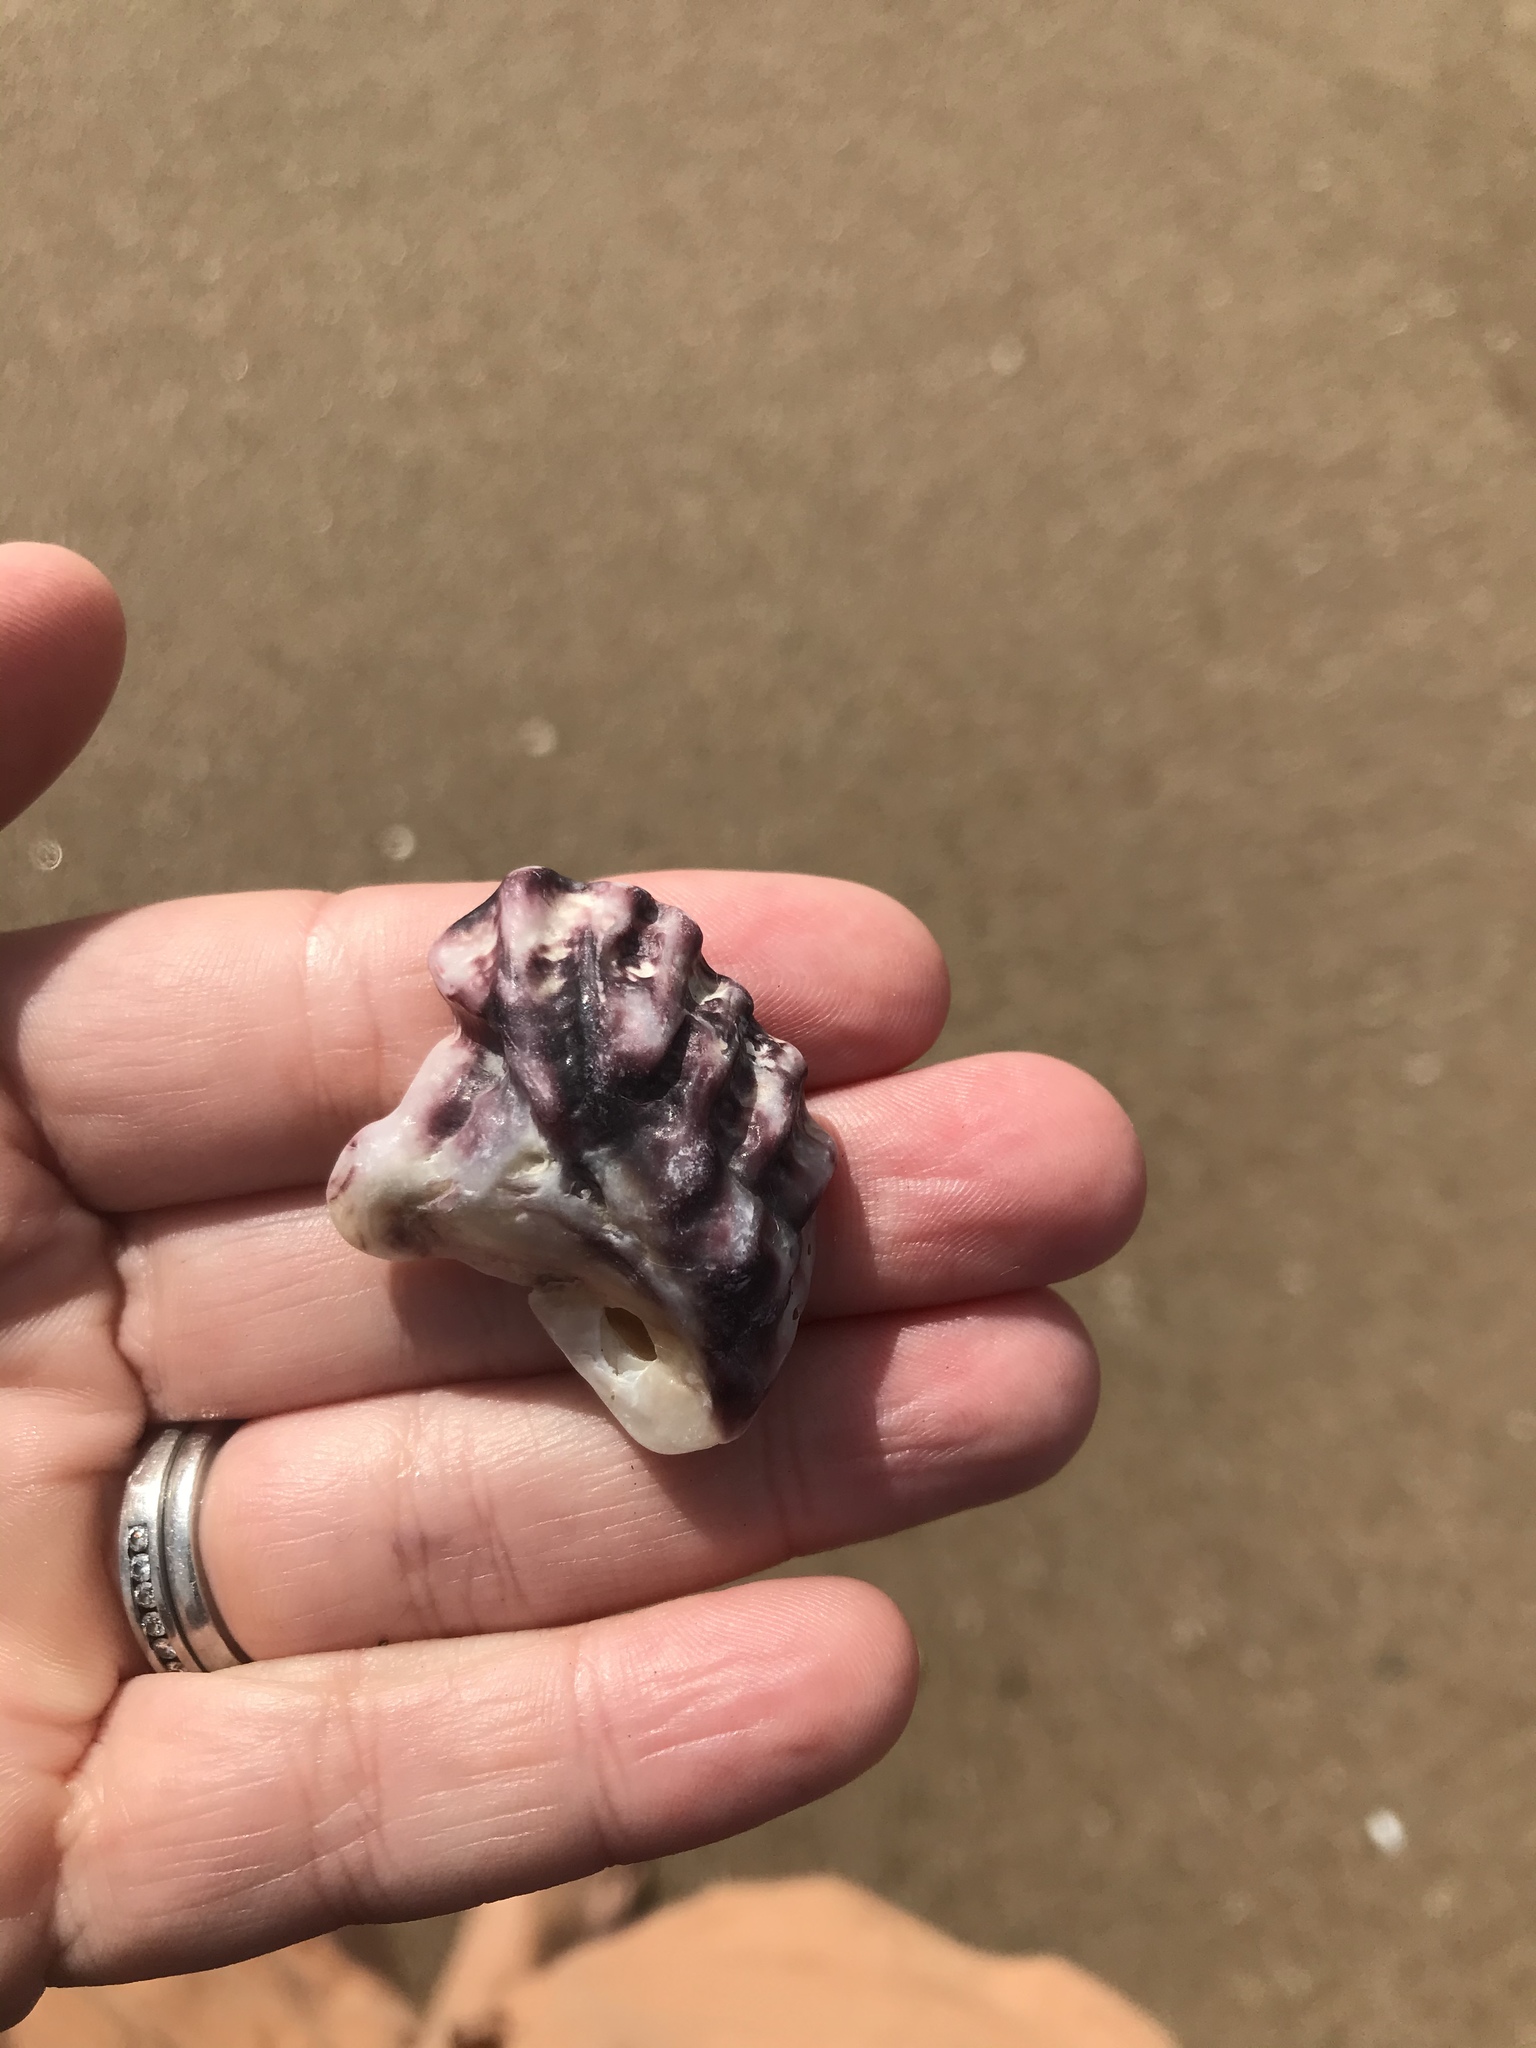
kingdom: Animalia
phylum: Mollusca
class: Bivalvia
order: Ostreida
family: Ostreidae
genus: Saccostrea
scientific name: Saccostrea glomerata
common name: Sydney cupped oyster
